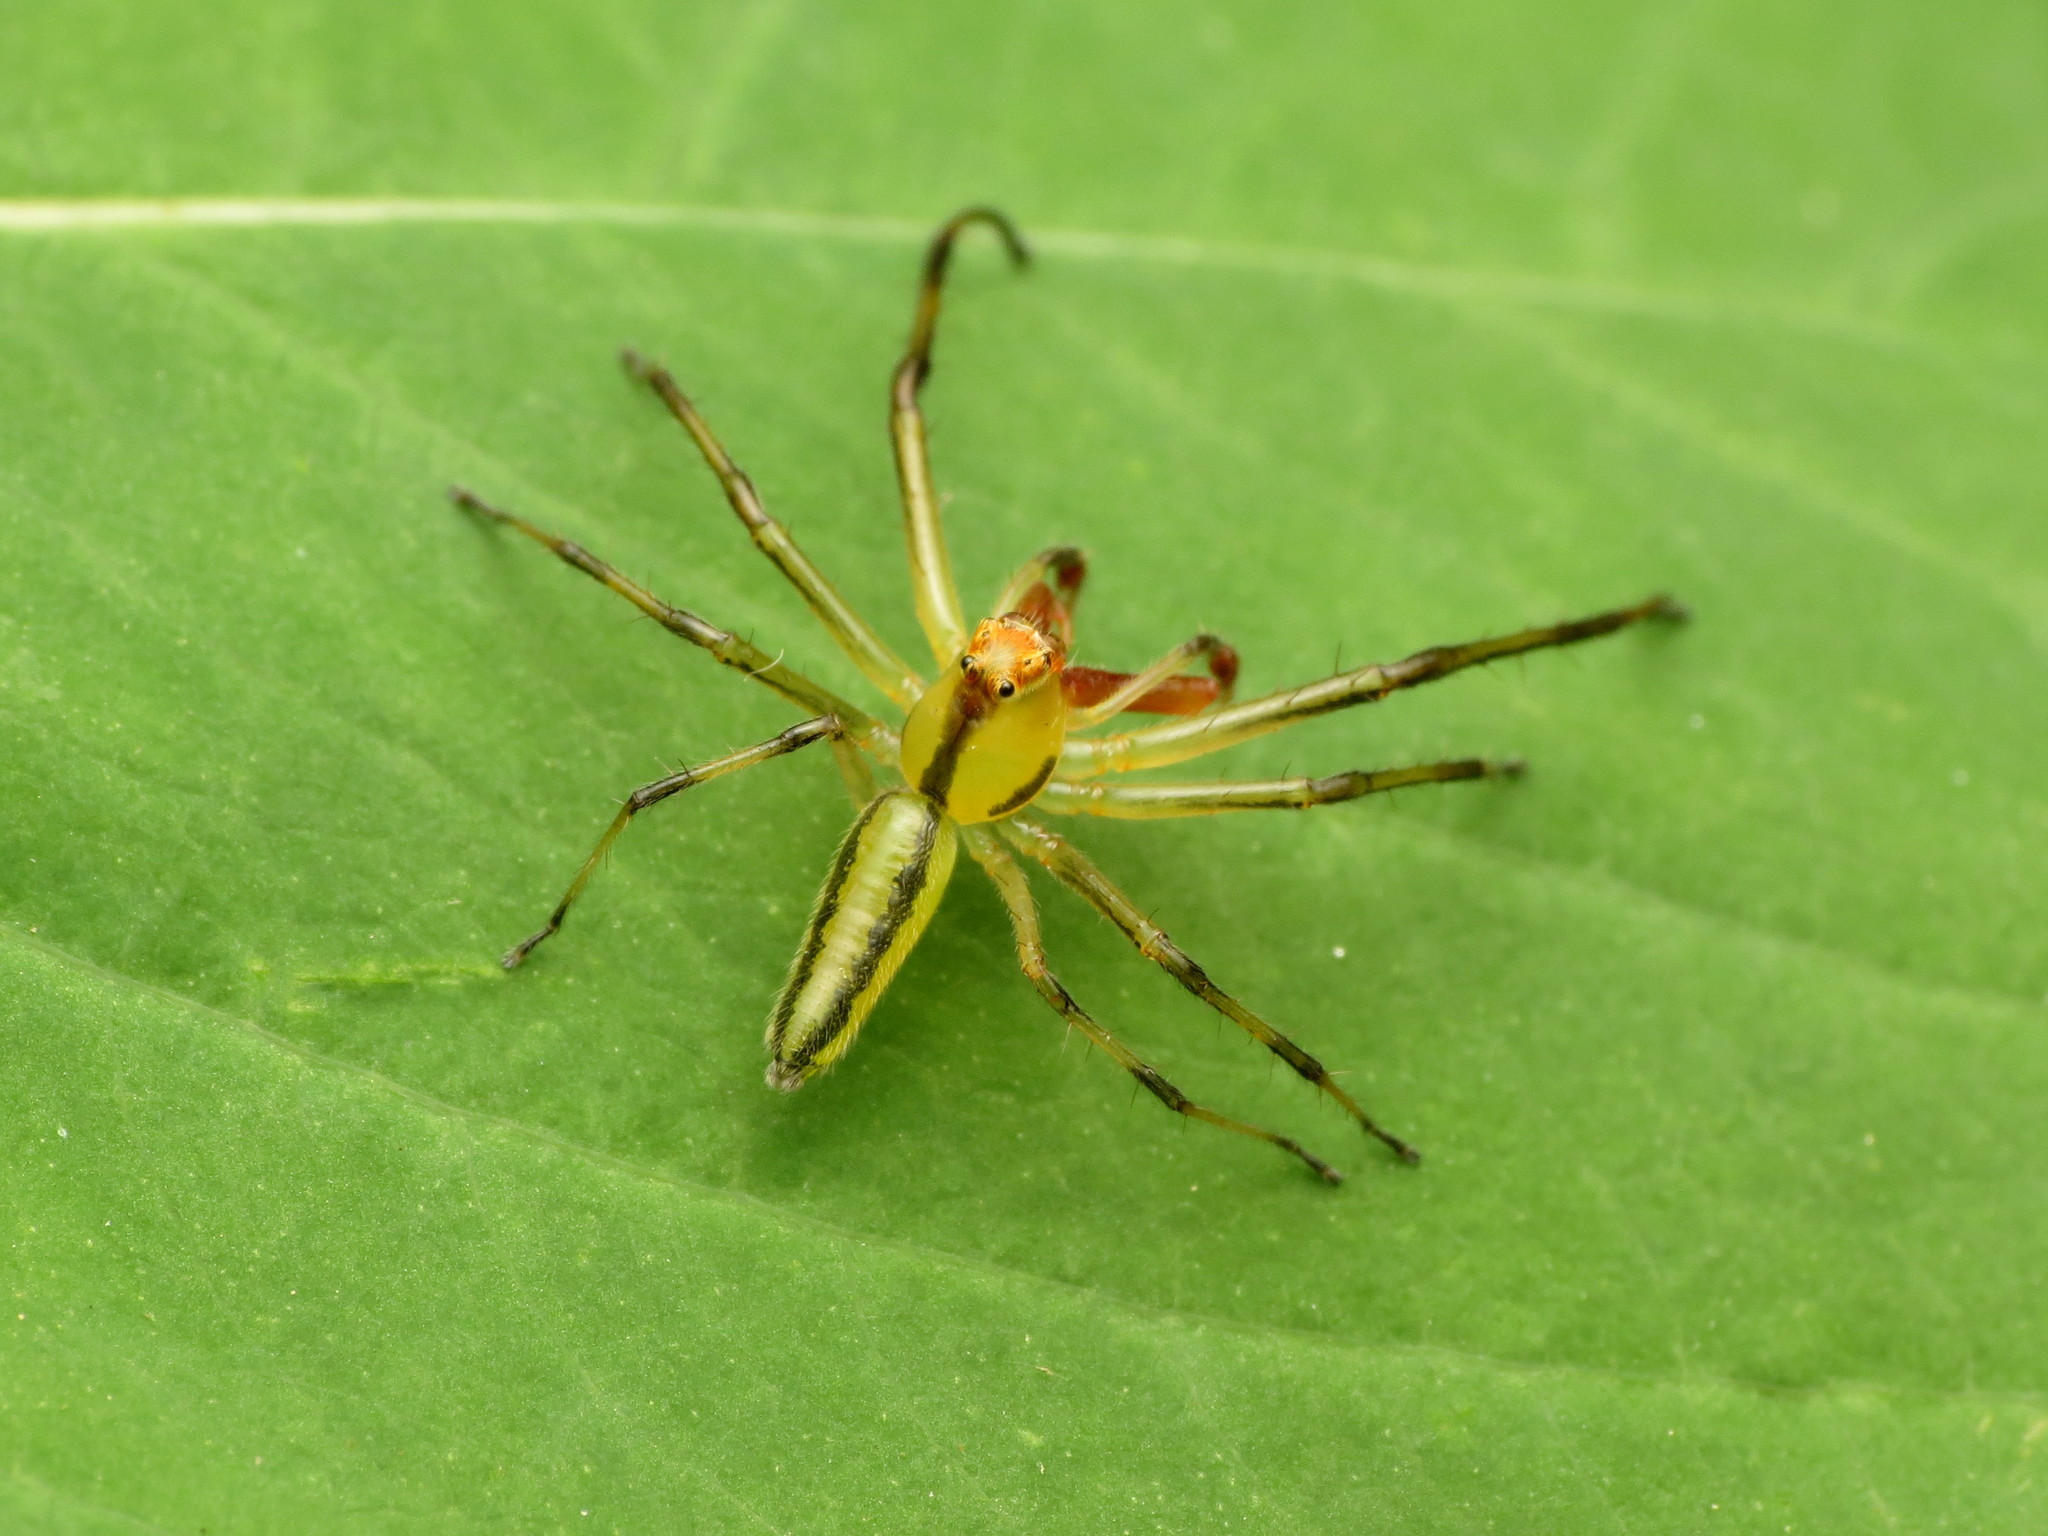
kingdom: Animalia
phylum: Arthropoda
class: Arachnida
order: Araneae
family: Salticidae
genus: Lyssomanes
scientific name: Lyssomanes viridis
